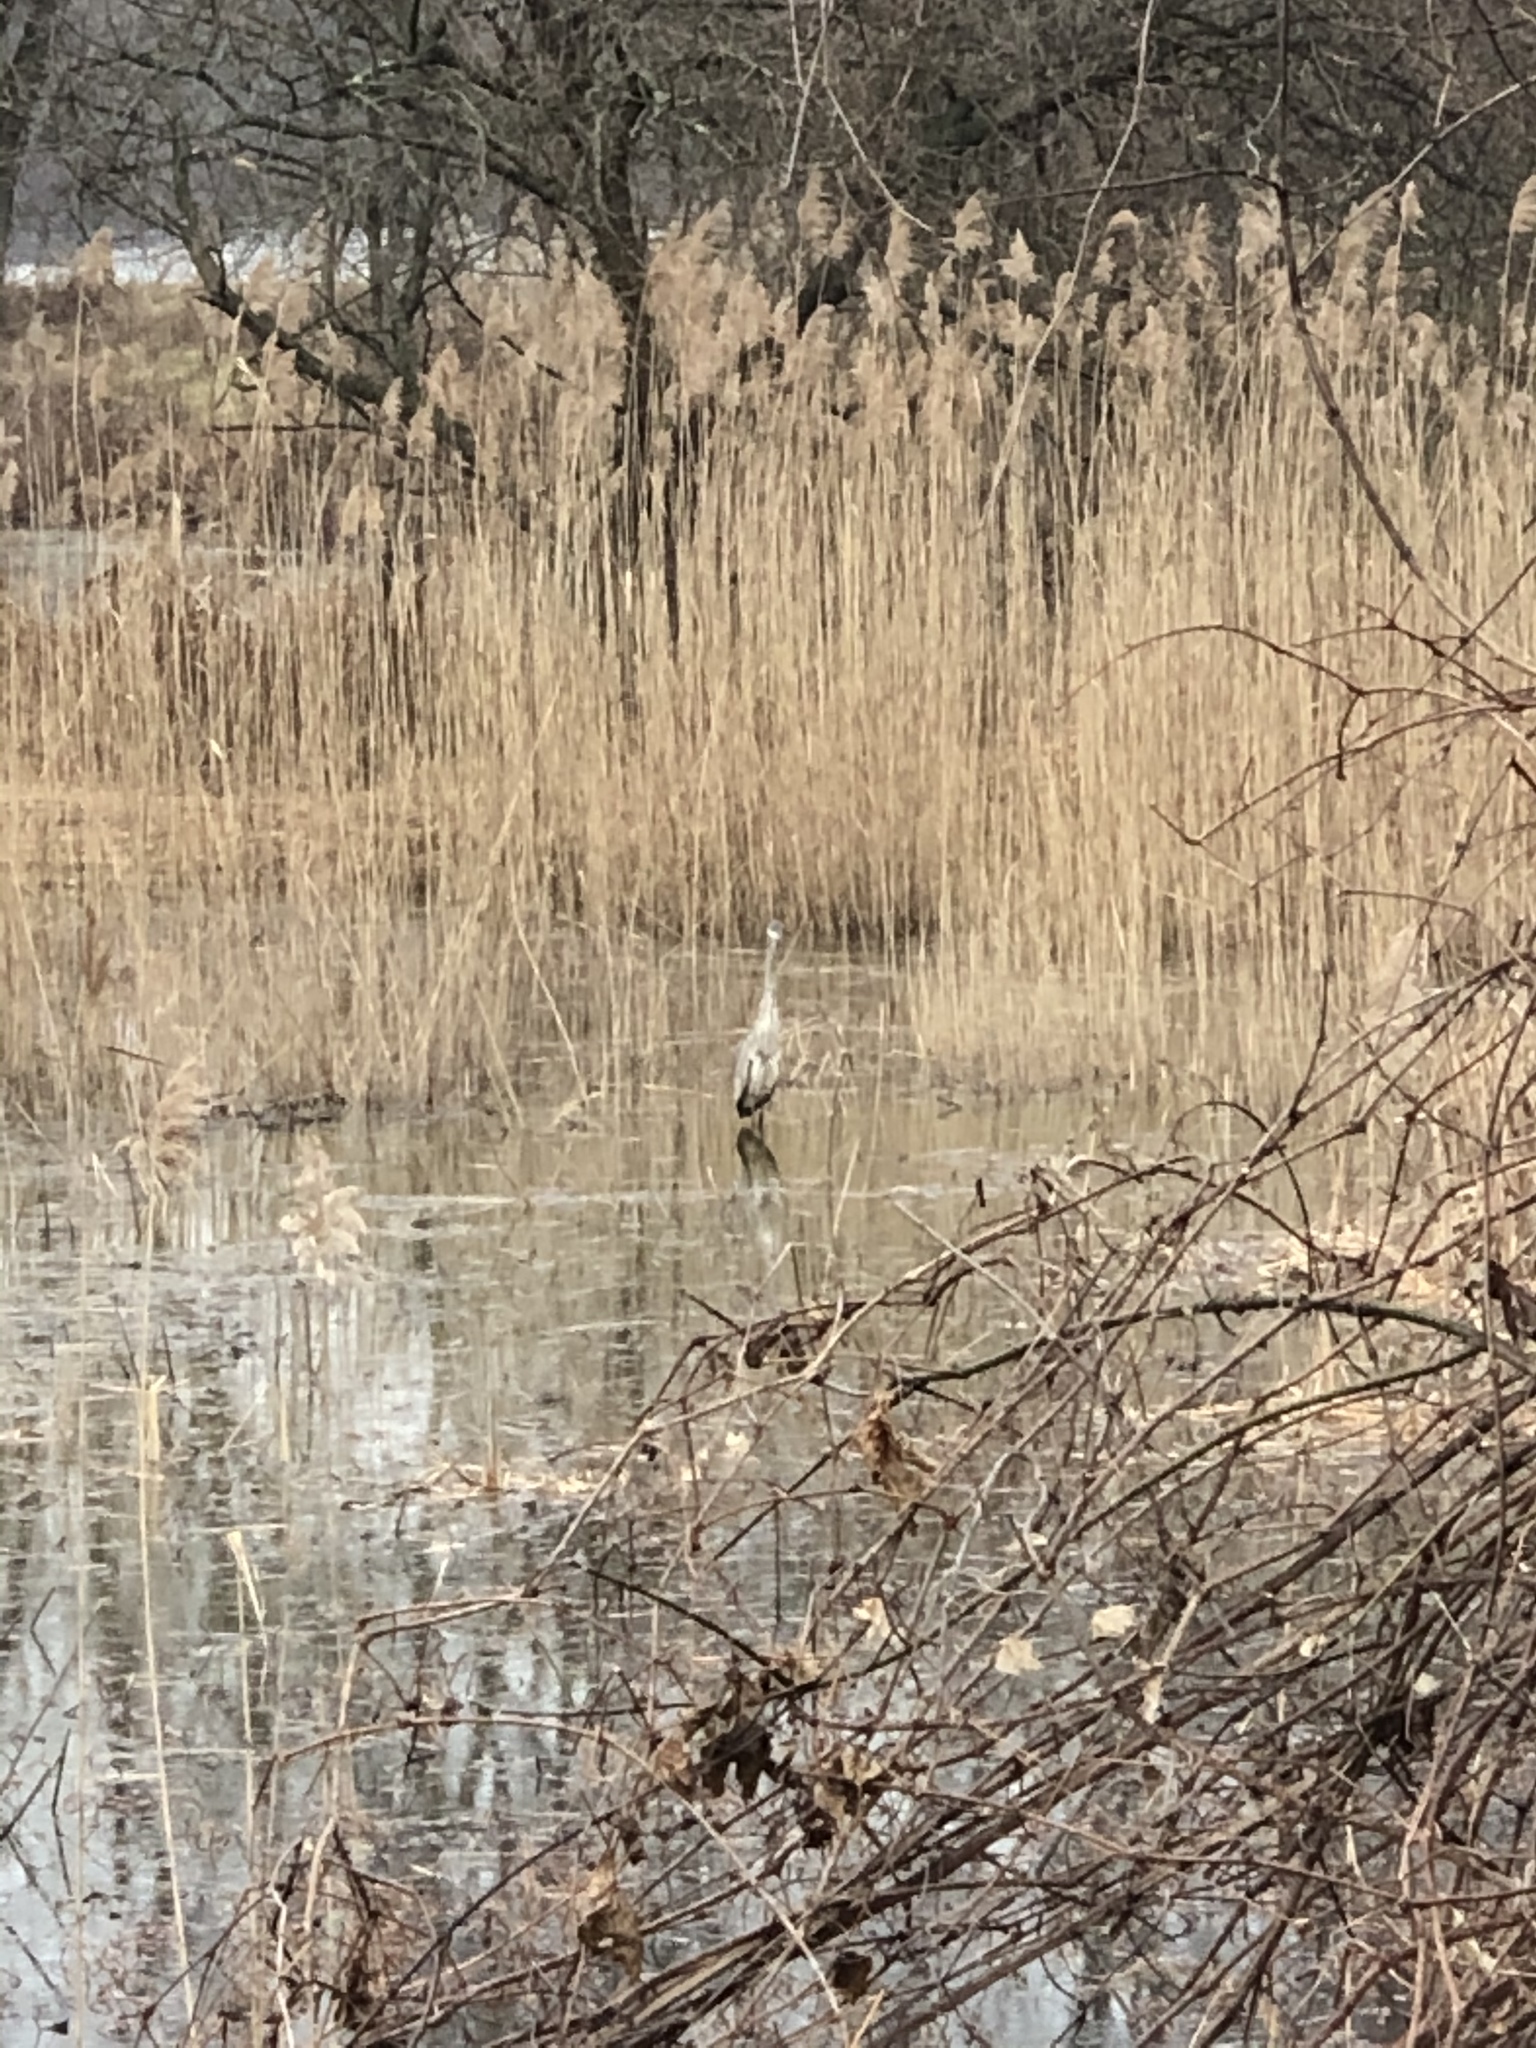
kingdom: Animalia
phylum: Chordata
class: Aves
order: Pelecaniformes
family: Ardeidae
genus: Ardea
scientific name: Ardea herodias
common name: Great blue heron
